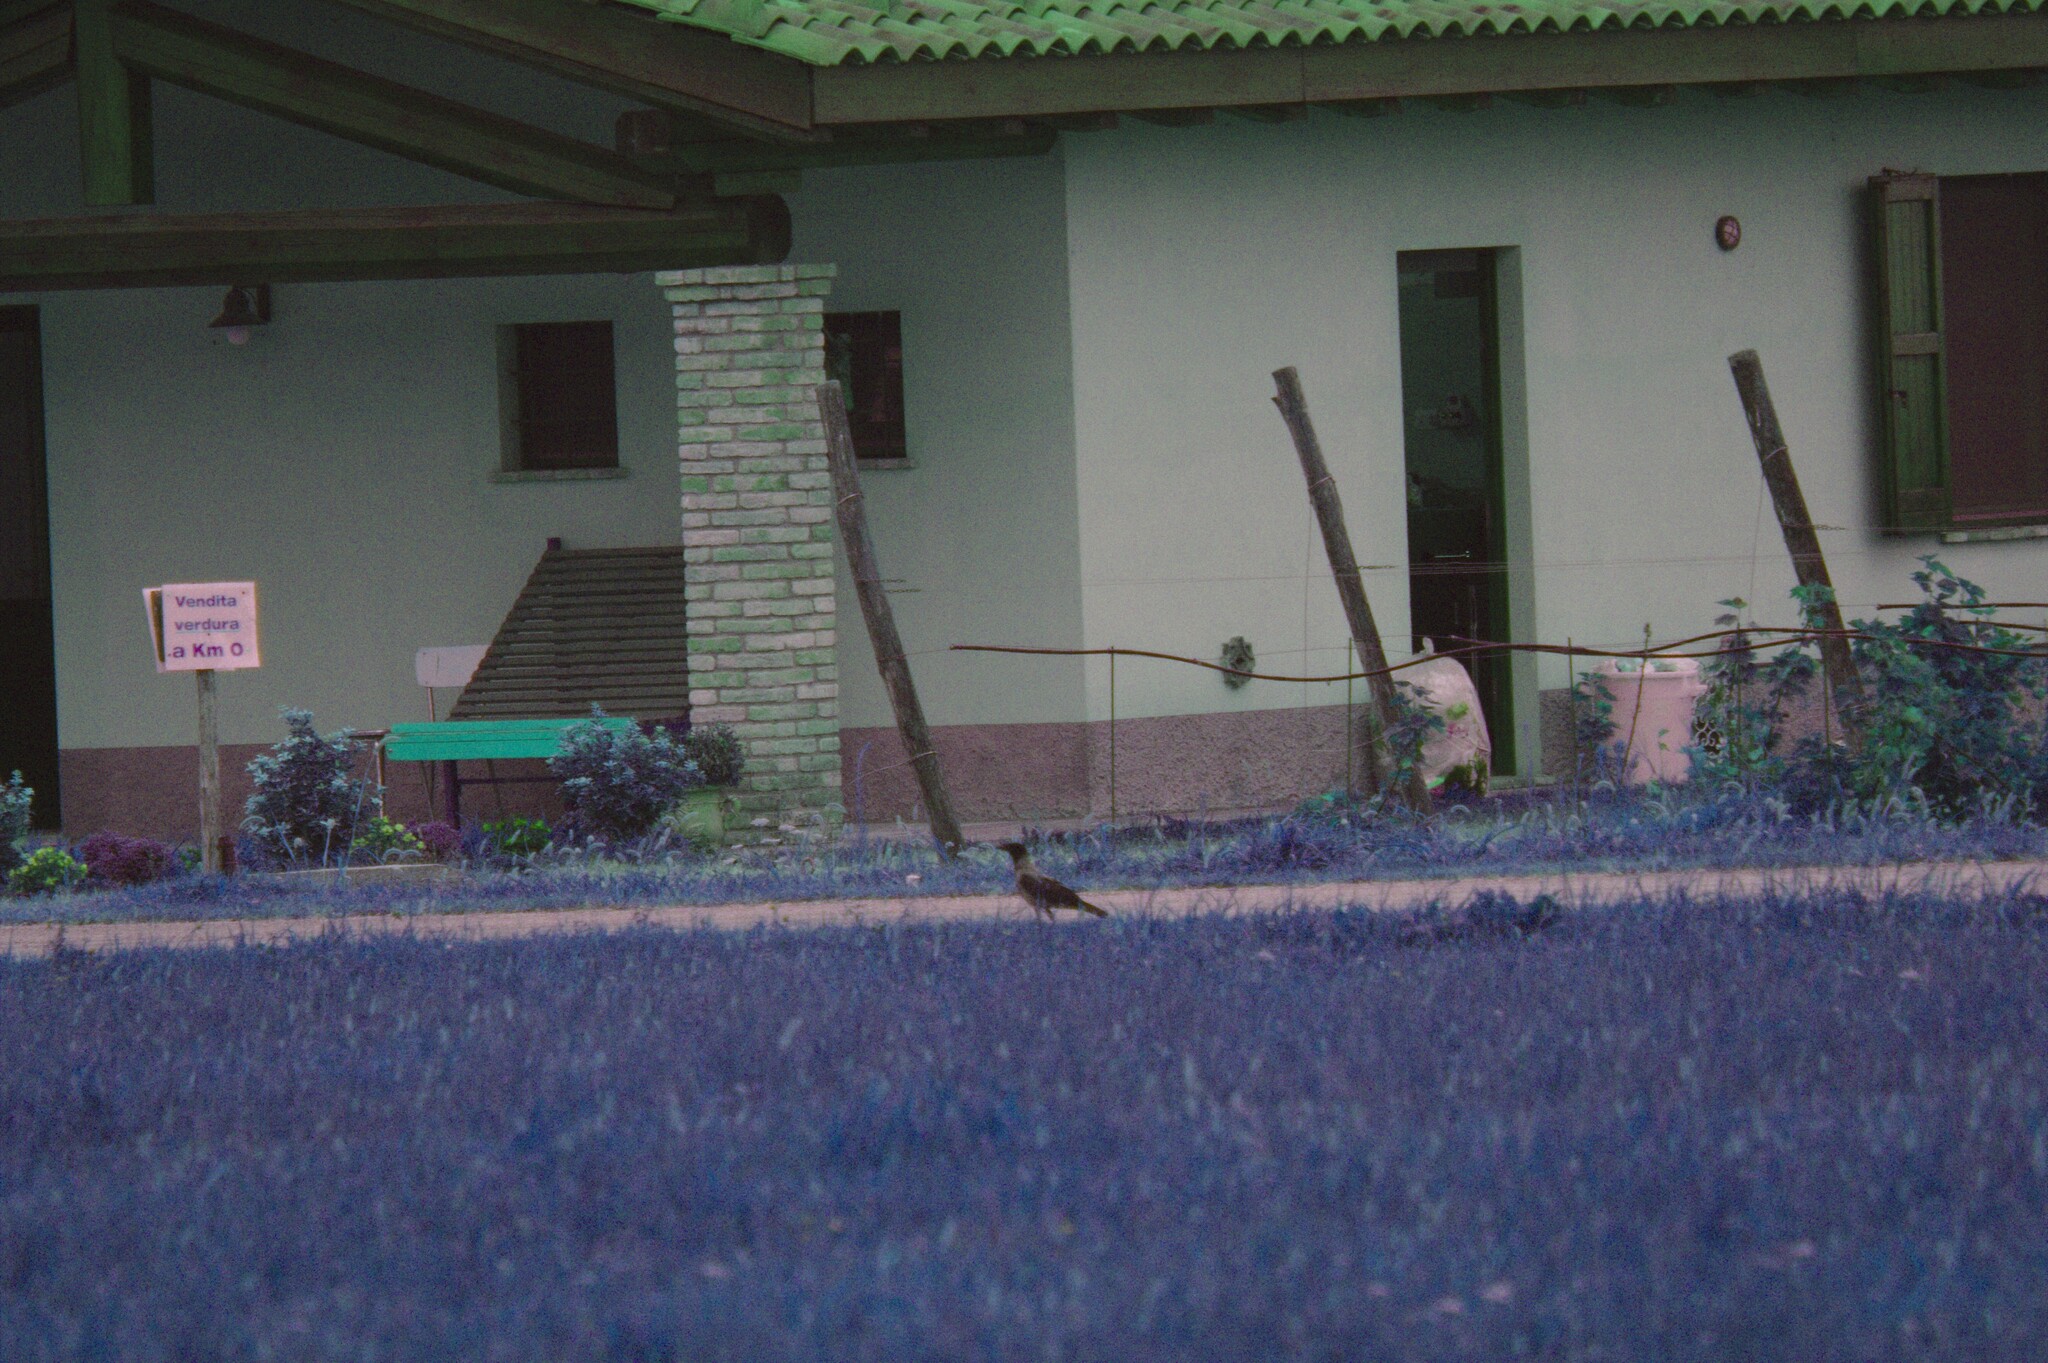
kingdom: Animalia
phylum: Chordata
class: Aves
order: Passeriformes
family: Corvidae
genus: Corvus
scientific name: Corvus cornix
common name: Hooded crow
